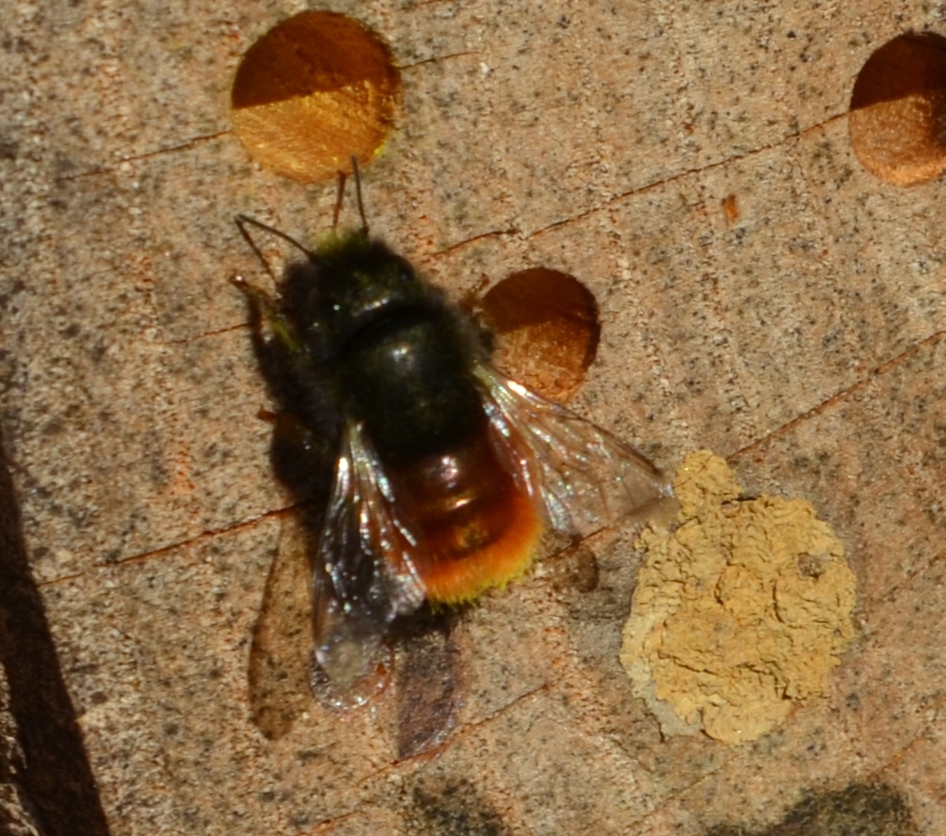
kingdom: Animalia
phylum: Arthropoda
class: Insecta
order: Hymenoptera
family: Megachilidae
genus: Osmia
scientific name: Osmia cornuta
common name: Mason bee
